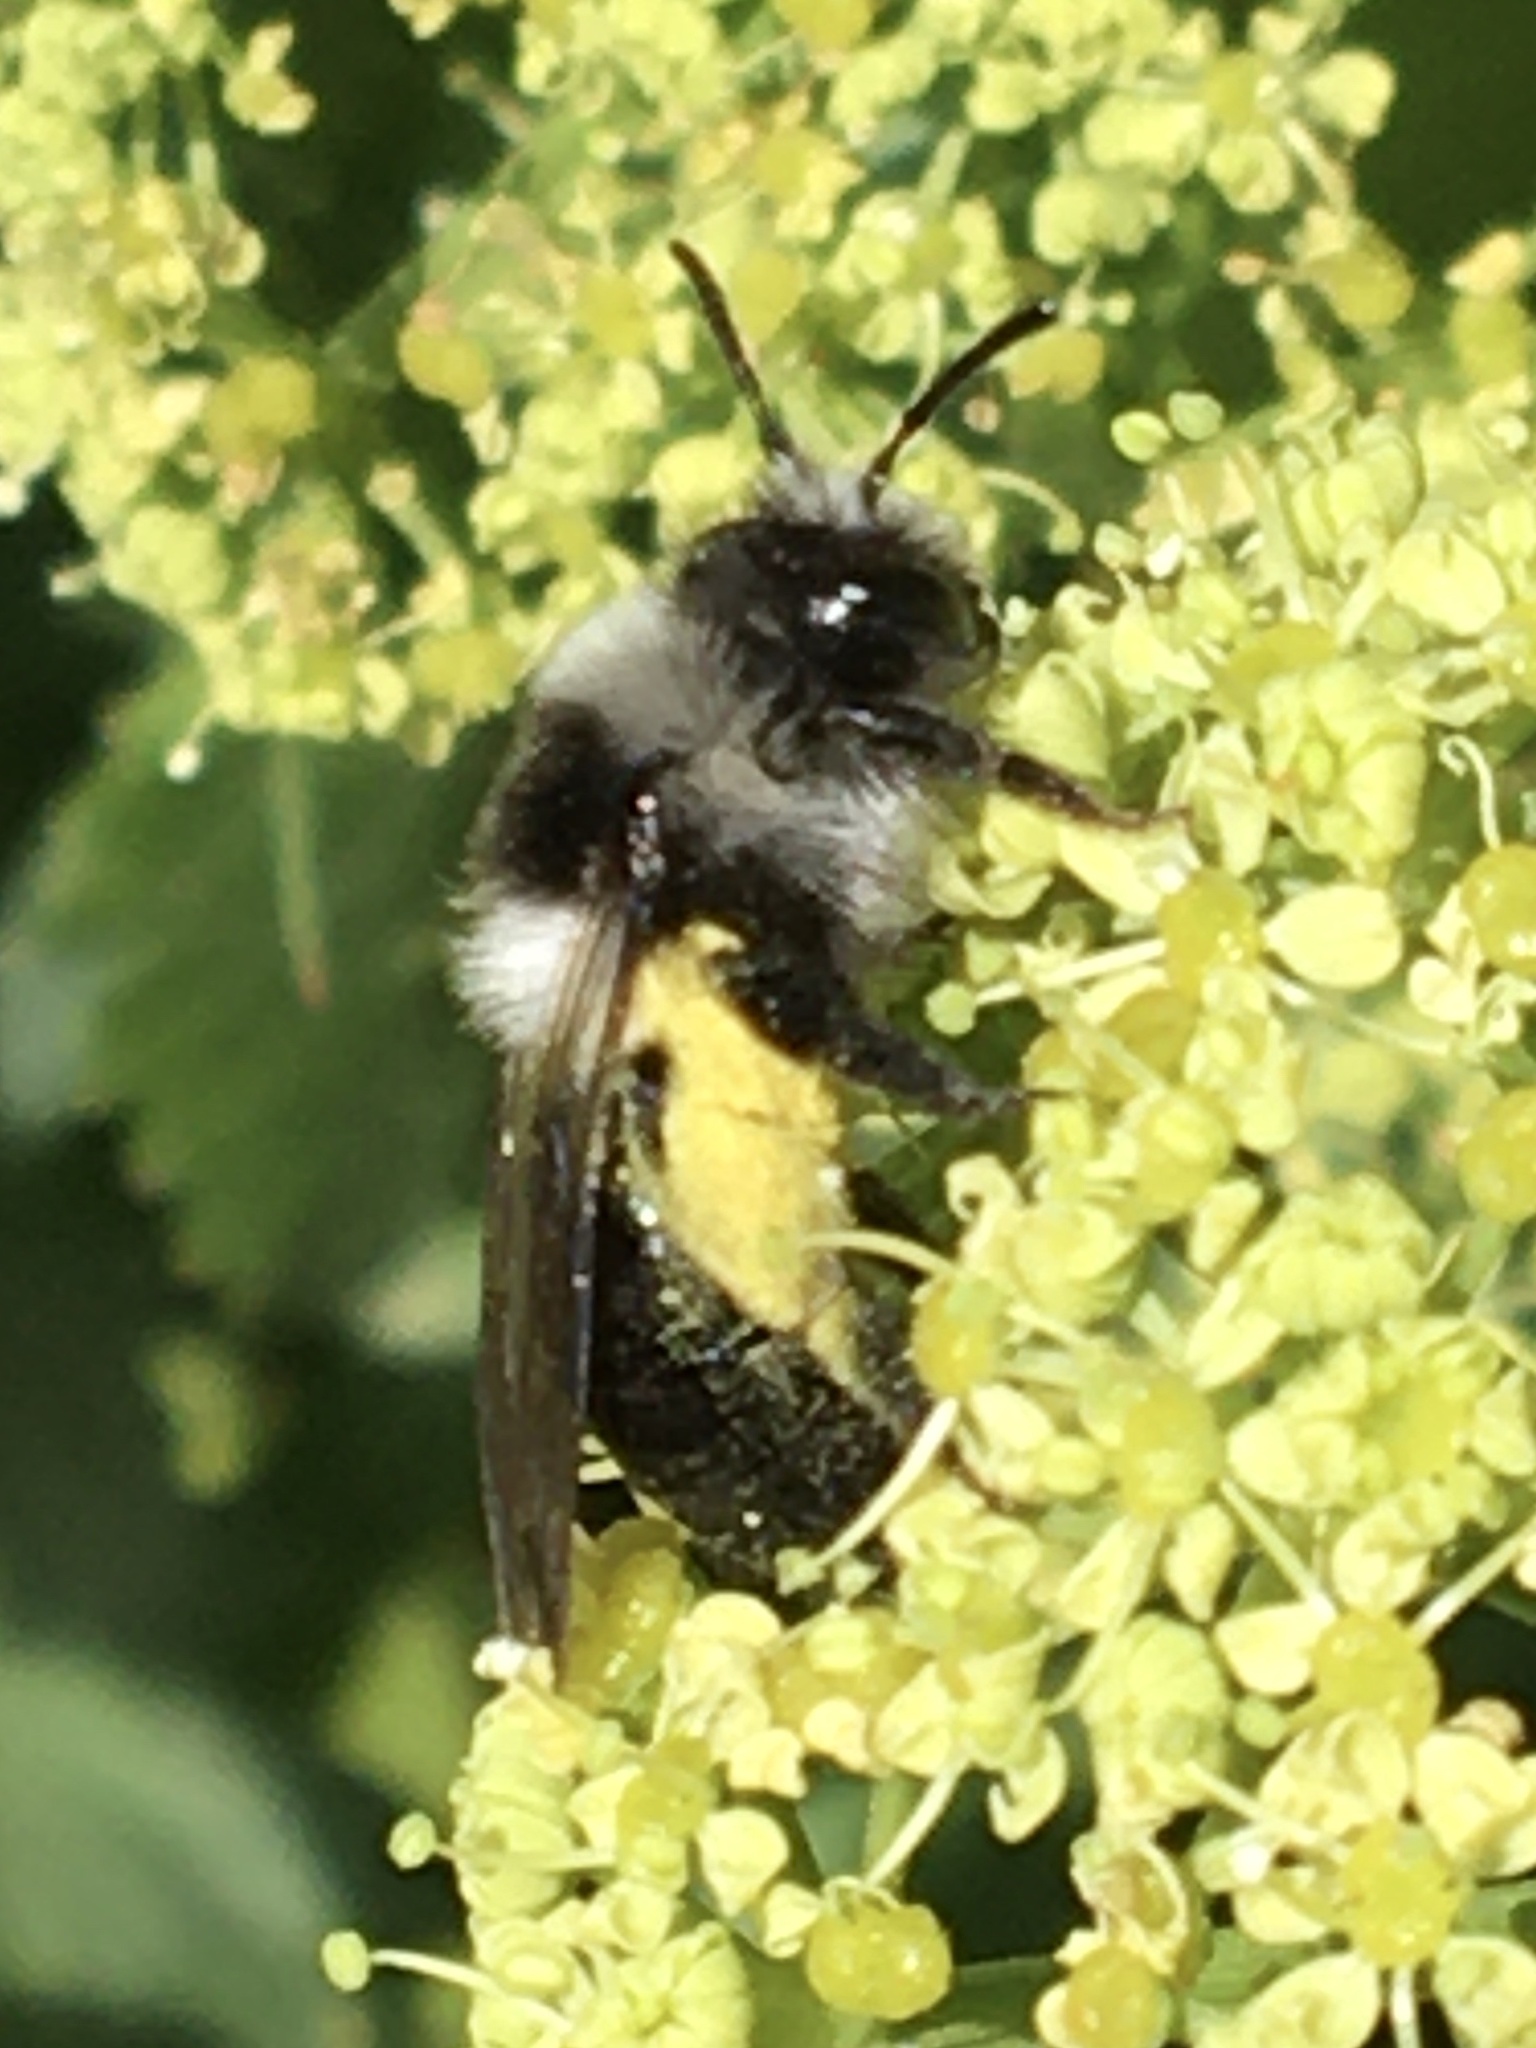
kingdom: Animalia
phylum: Arthropoda
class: Insecta
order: Hymenoptera
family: Andrenidae
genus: Andrena
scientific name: Andrena cineraria
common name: Ashy mining bee
